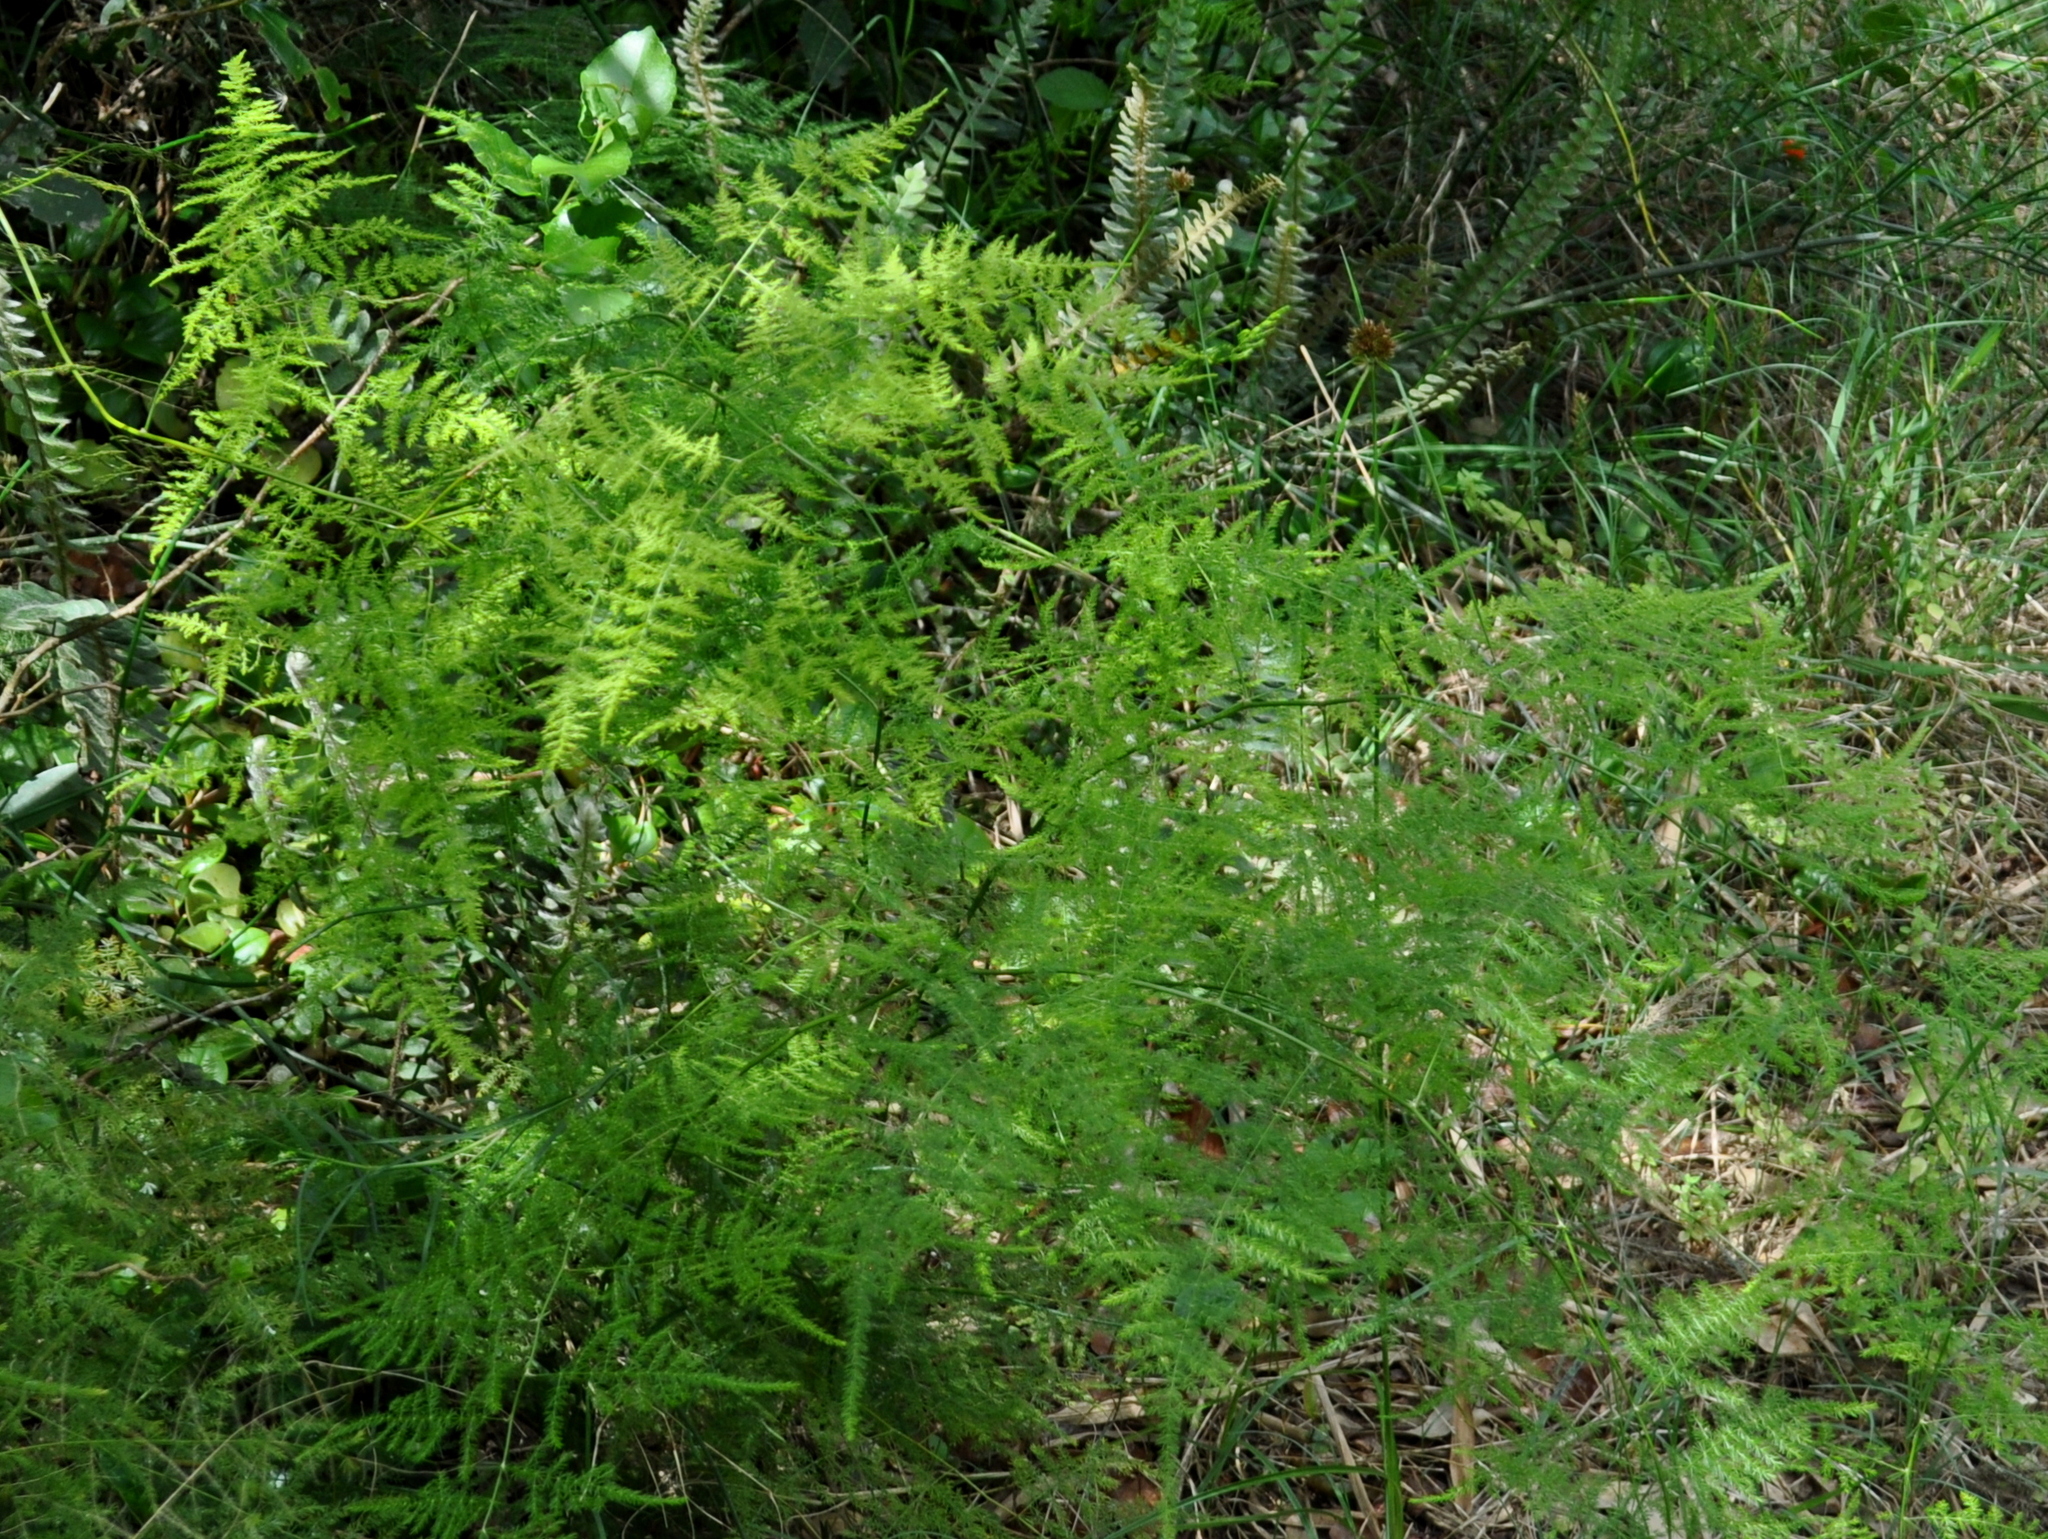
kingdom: Plantae
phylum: Tracheophyta
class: Liliopsida
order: Asparagales
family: Asparagaceae
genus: Asparagus
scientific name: Asparagus setaceus
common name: Common asparagus fern
